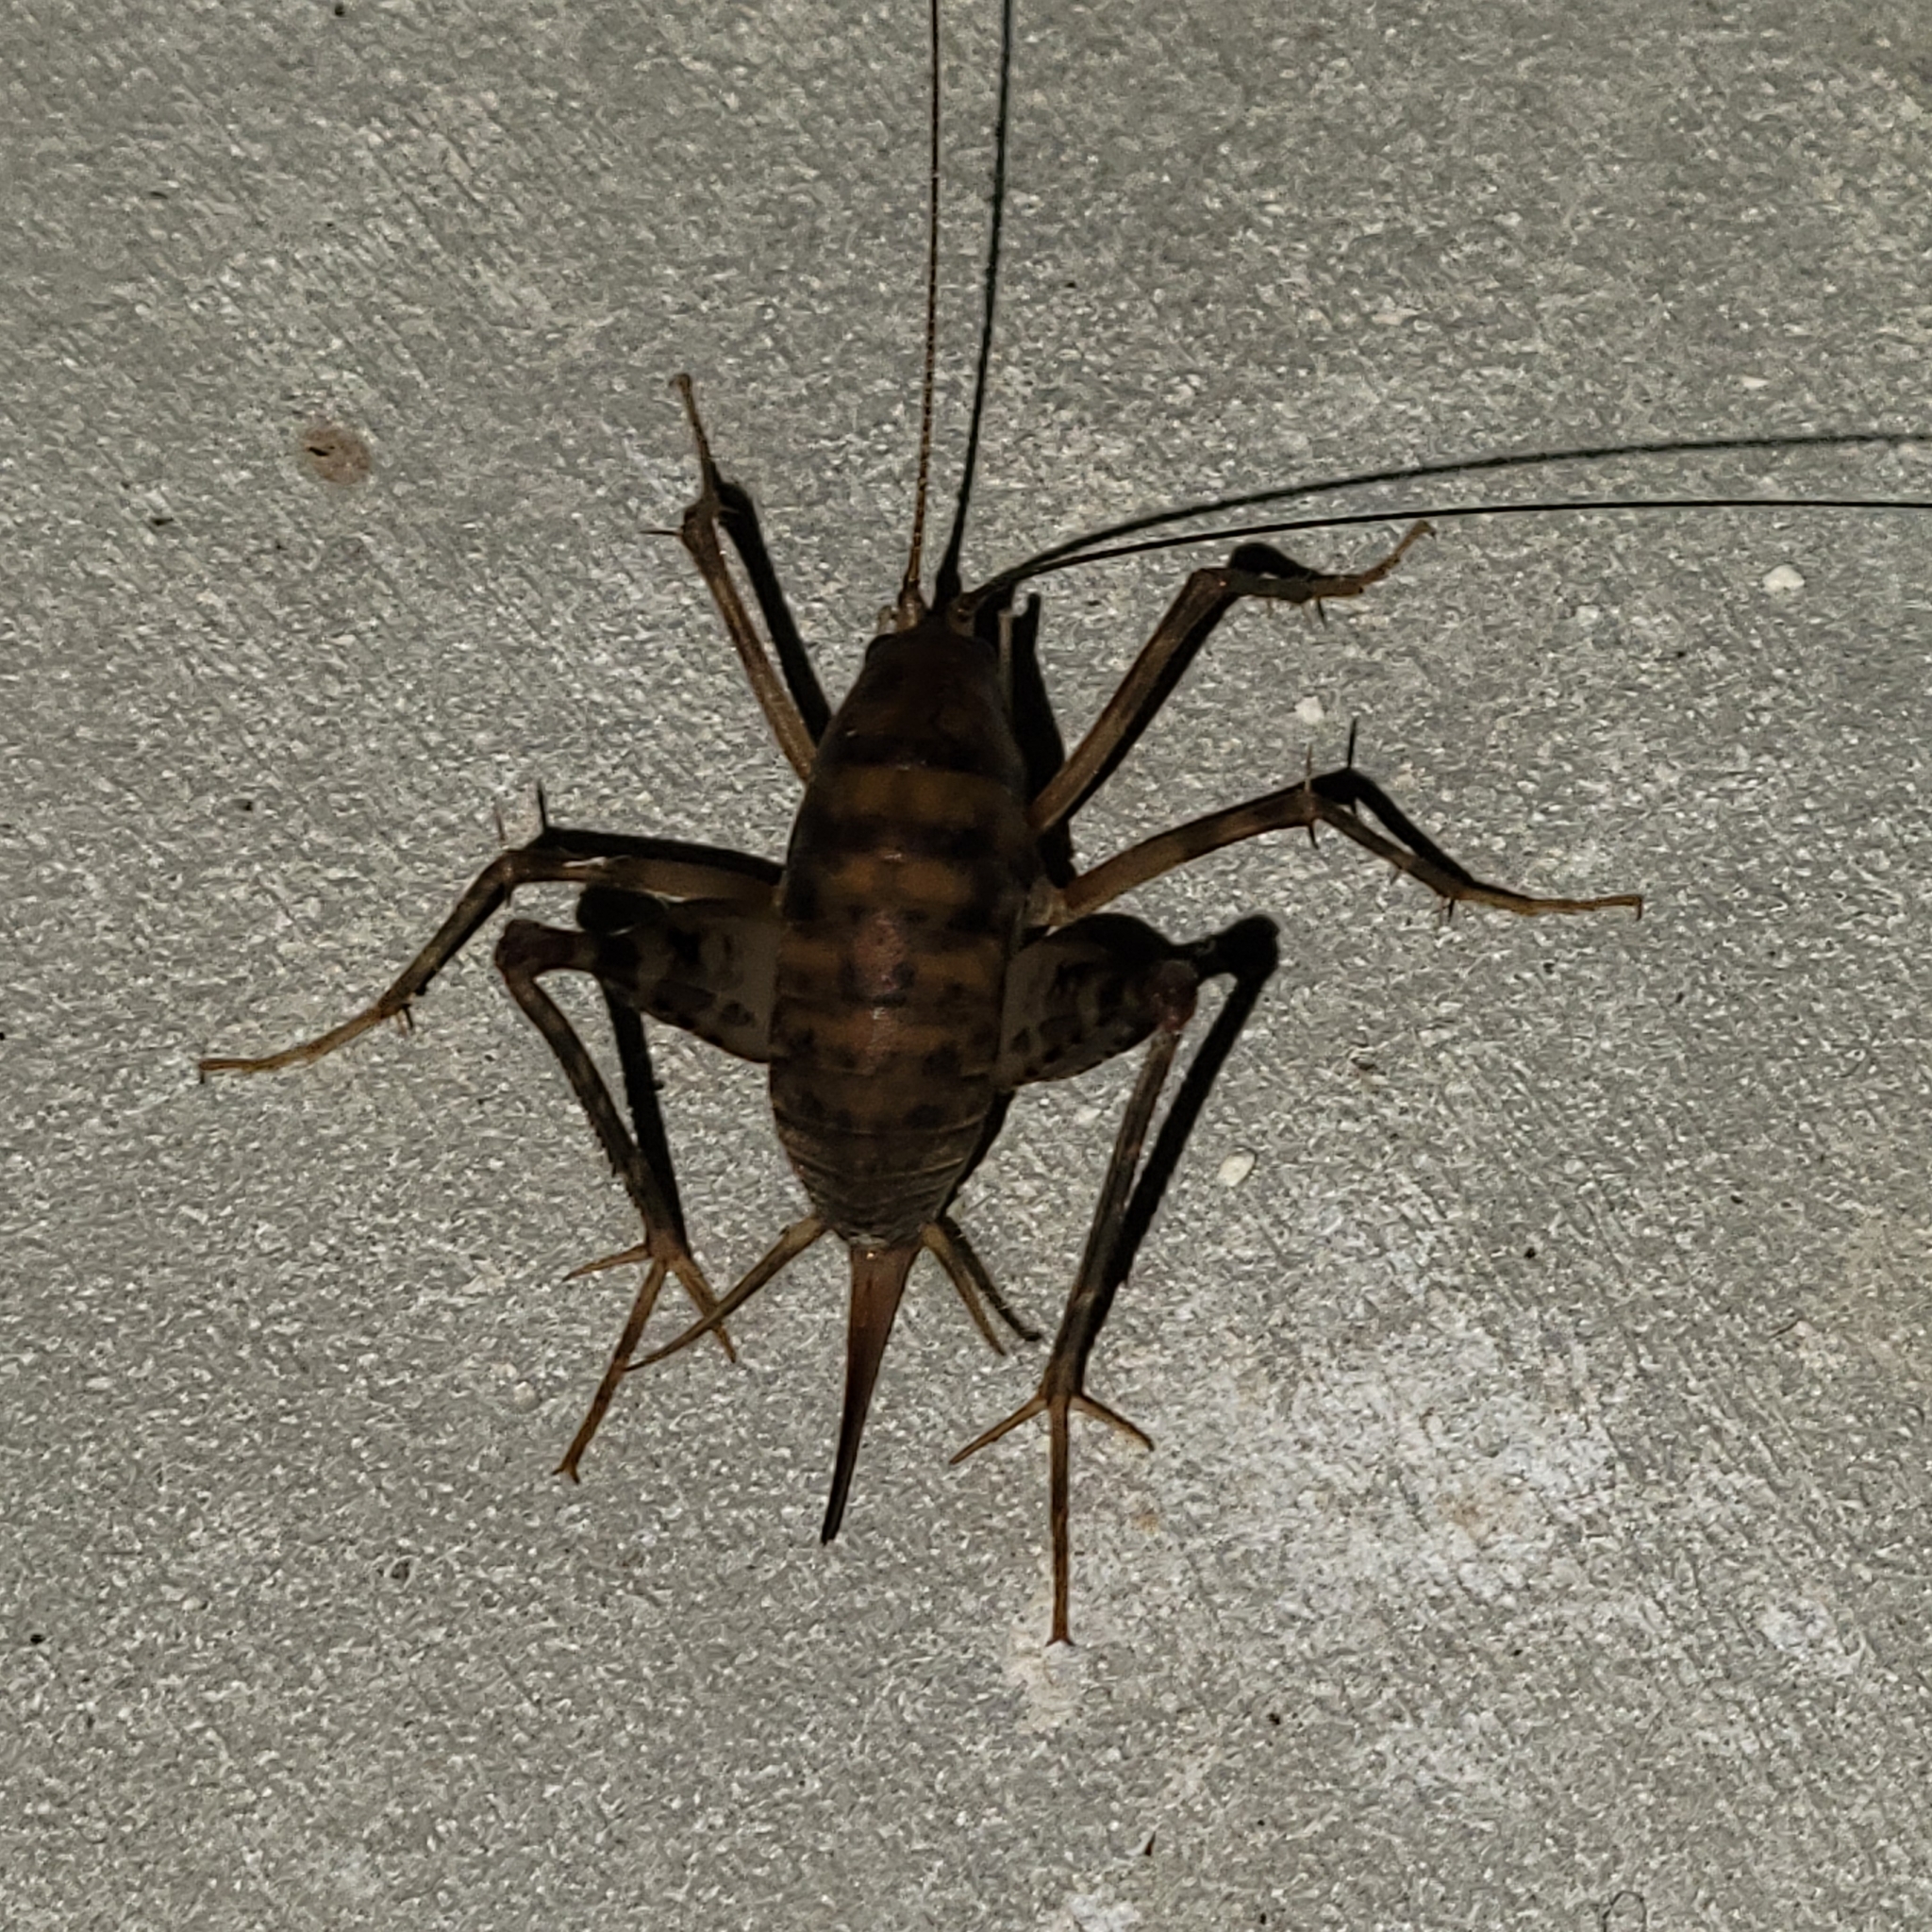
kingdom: Animalia
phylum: Arthropoda
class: Insecta
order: Orthoptera
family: Rhaphidophoridae
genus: Tachycines
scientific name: Tachycines asynamorus
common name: Greenhouse camel cricket
